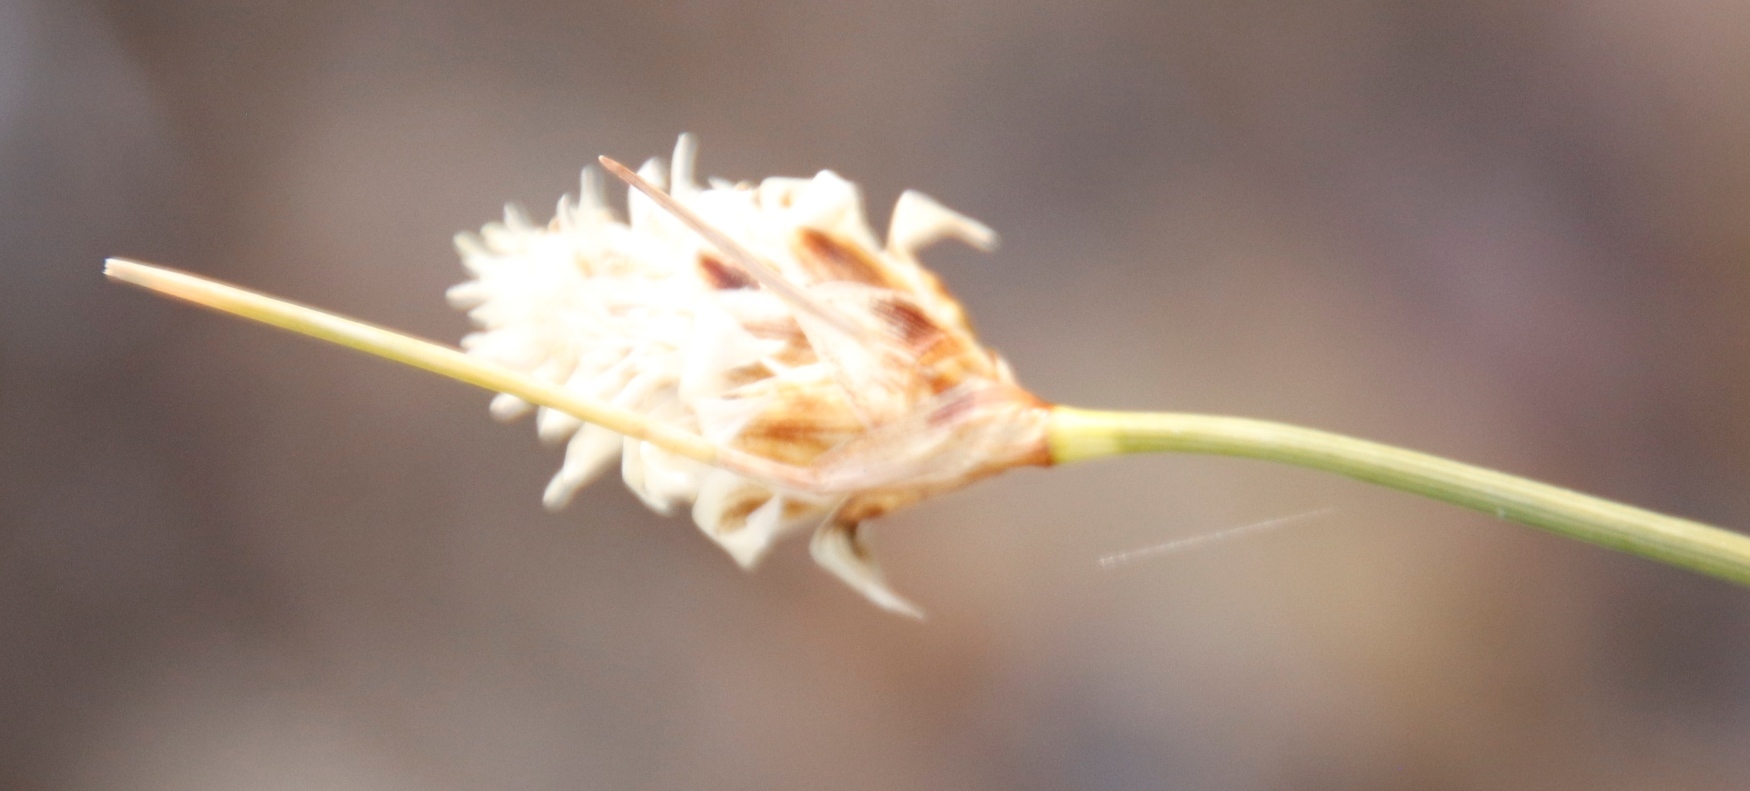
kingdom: Plantae
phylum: Tracheophyta
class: Liliopsida
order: Poales
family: Cyperaceae
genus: Ficinia
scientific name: Ficinia nigrescens
